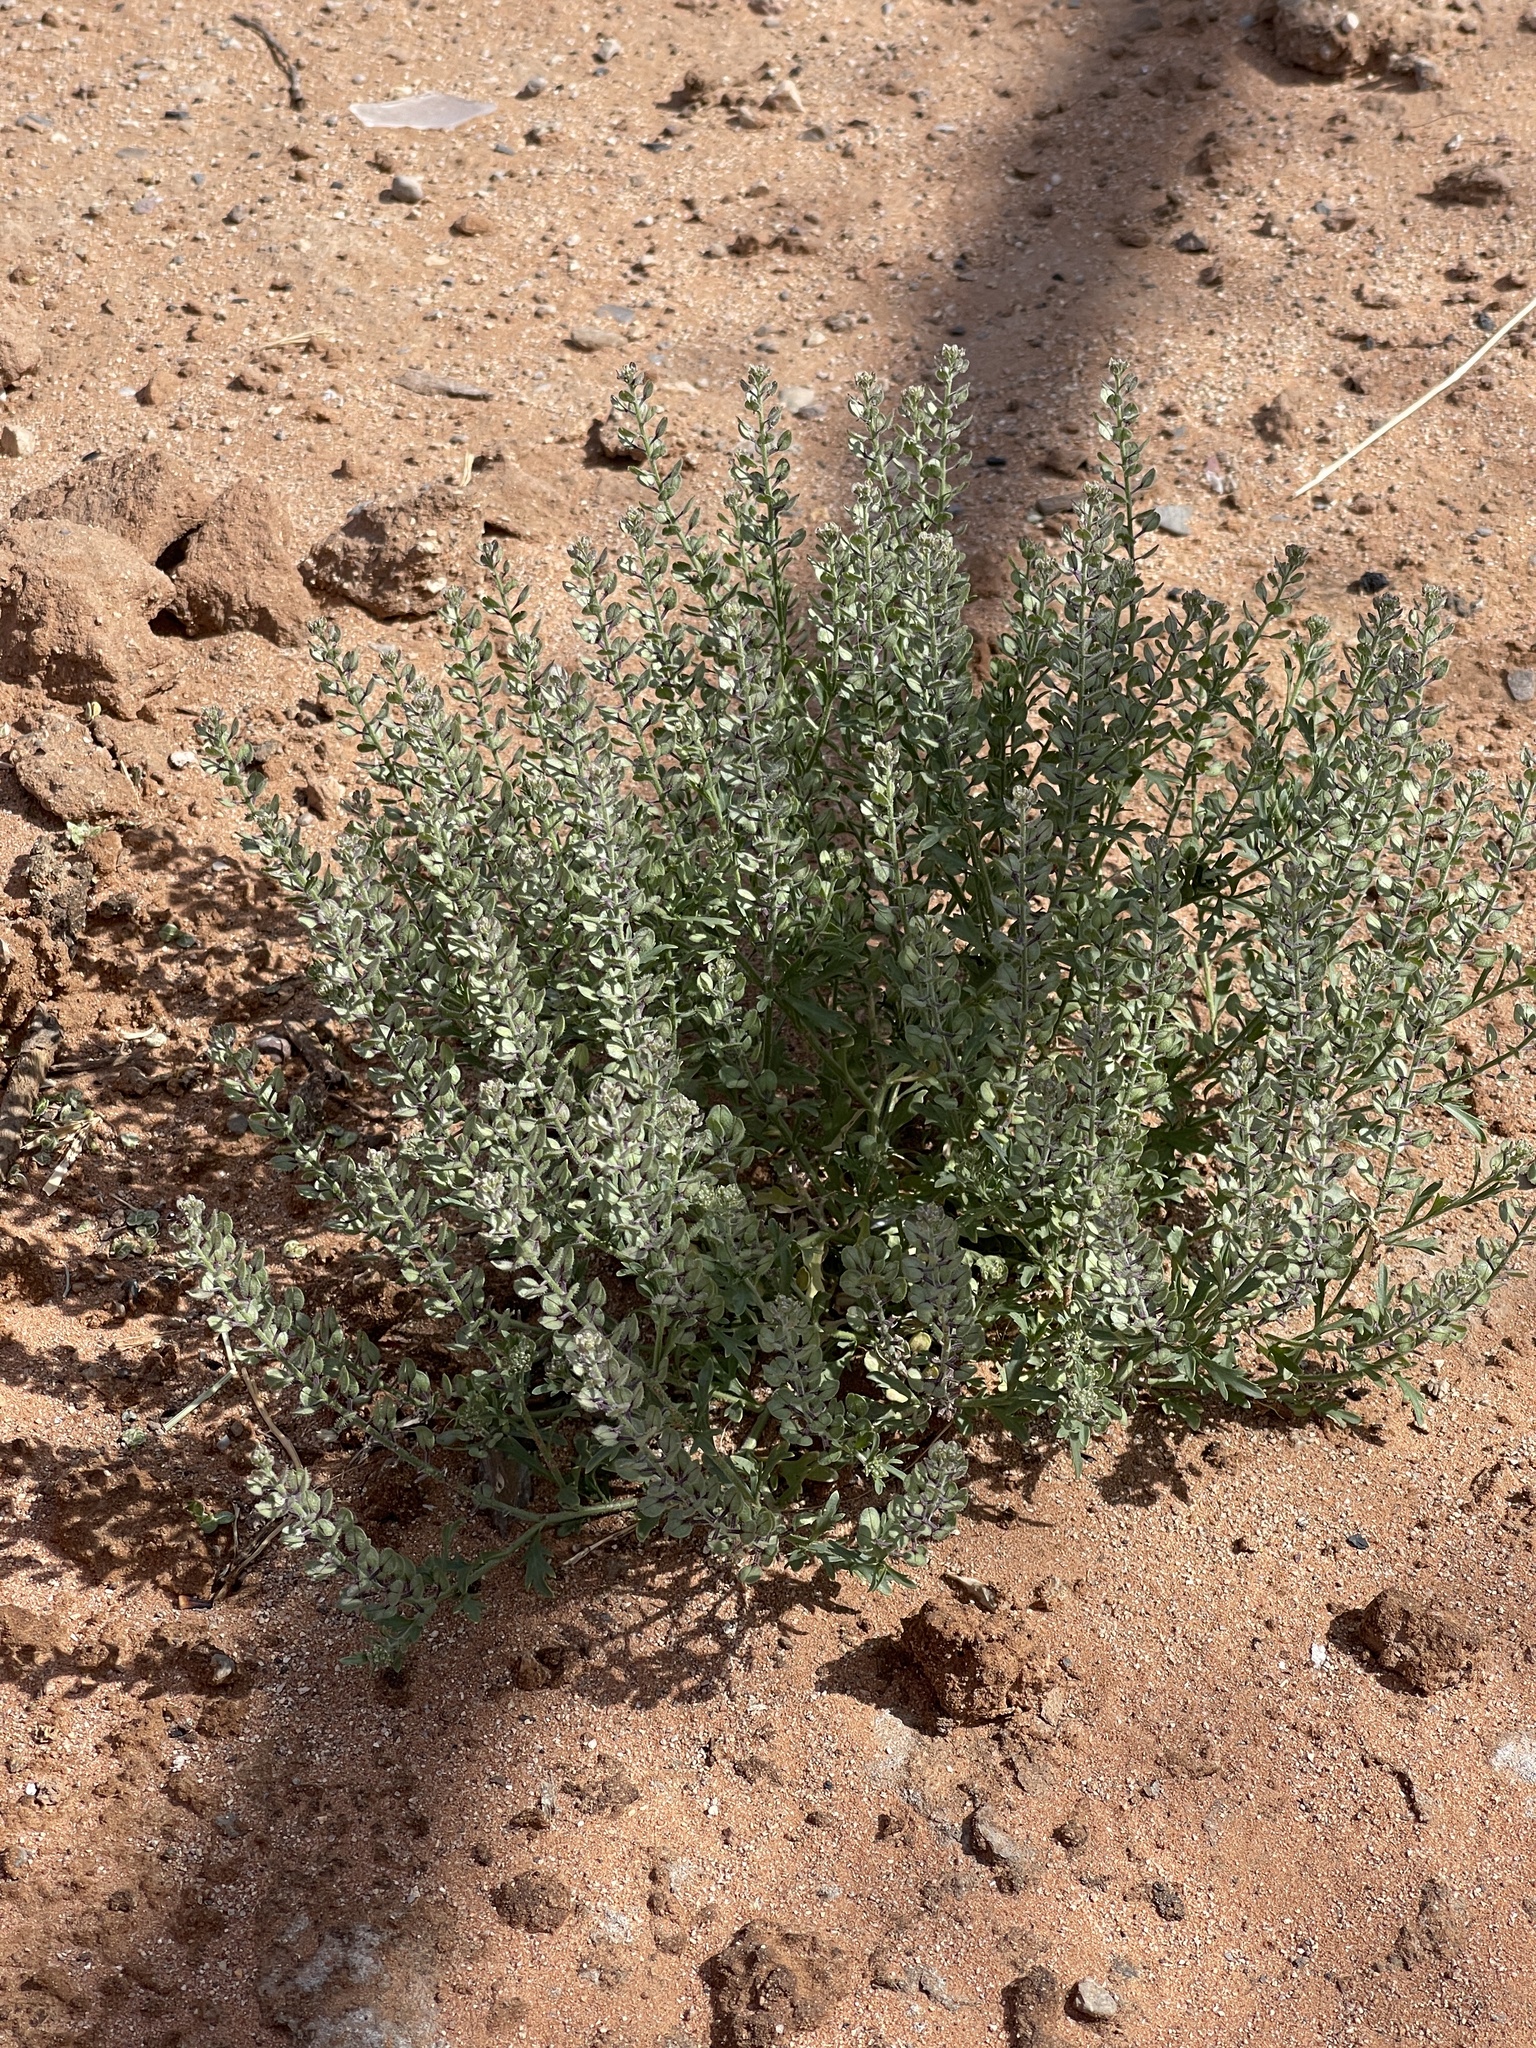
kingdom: Plantae
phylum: Tracheophyta
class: Magnoliopsida
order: Brassicales
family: Brassicaceae
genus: Lepidium
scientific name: Lepidium lasiocarpum
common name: Hairy-pod pepperwort
